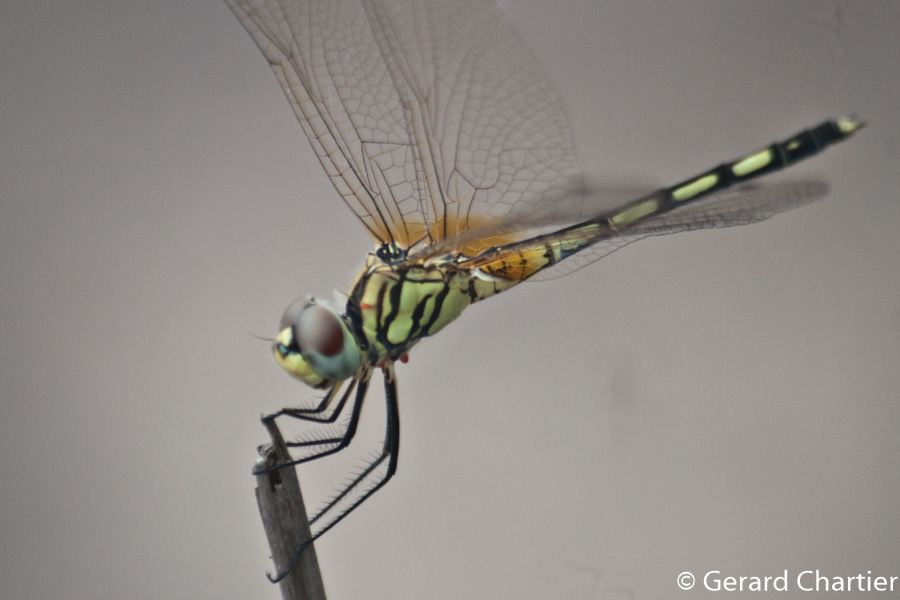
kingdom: Animalia
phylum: Arthropoda
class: Insecta
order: Odonata
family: Libellulidae
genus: Trithemis
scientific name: Trithemis pallidinervis
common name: Dancing dropwing
